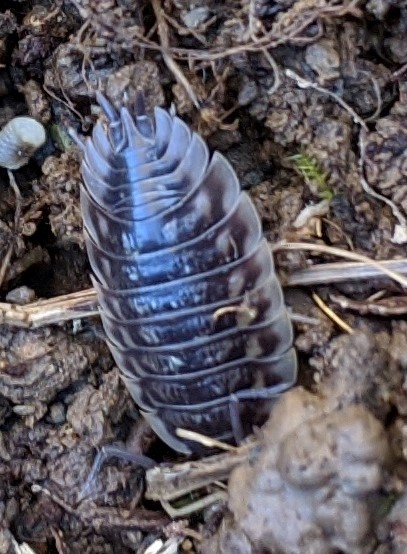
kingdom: Animalia
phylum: Arthropoda
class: Malacostraca
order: Isopoda
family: Oniscidae
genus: Oniscus
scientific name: Oniscus asellus
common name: Common shiny woodlouse
